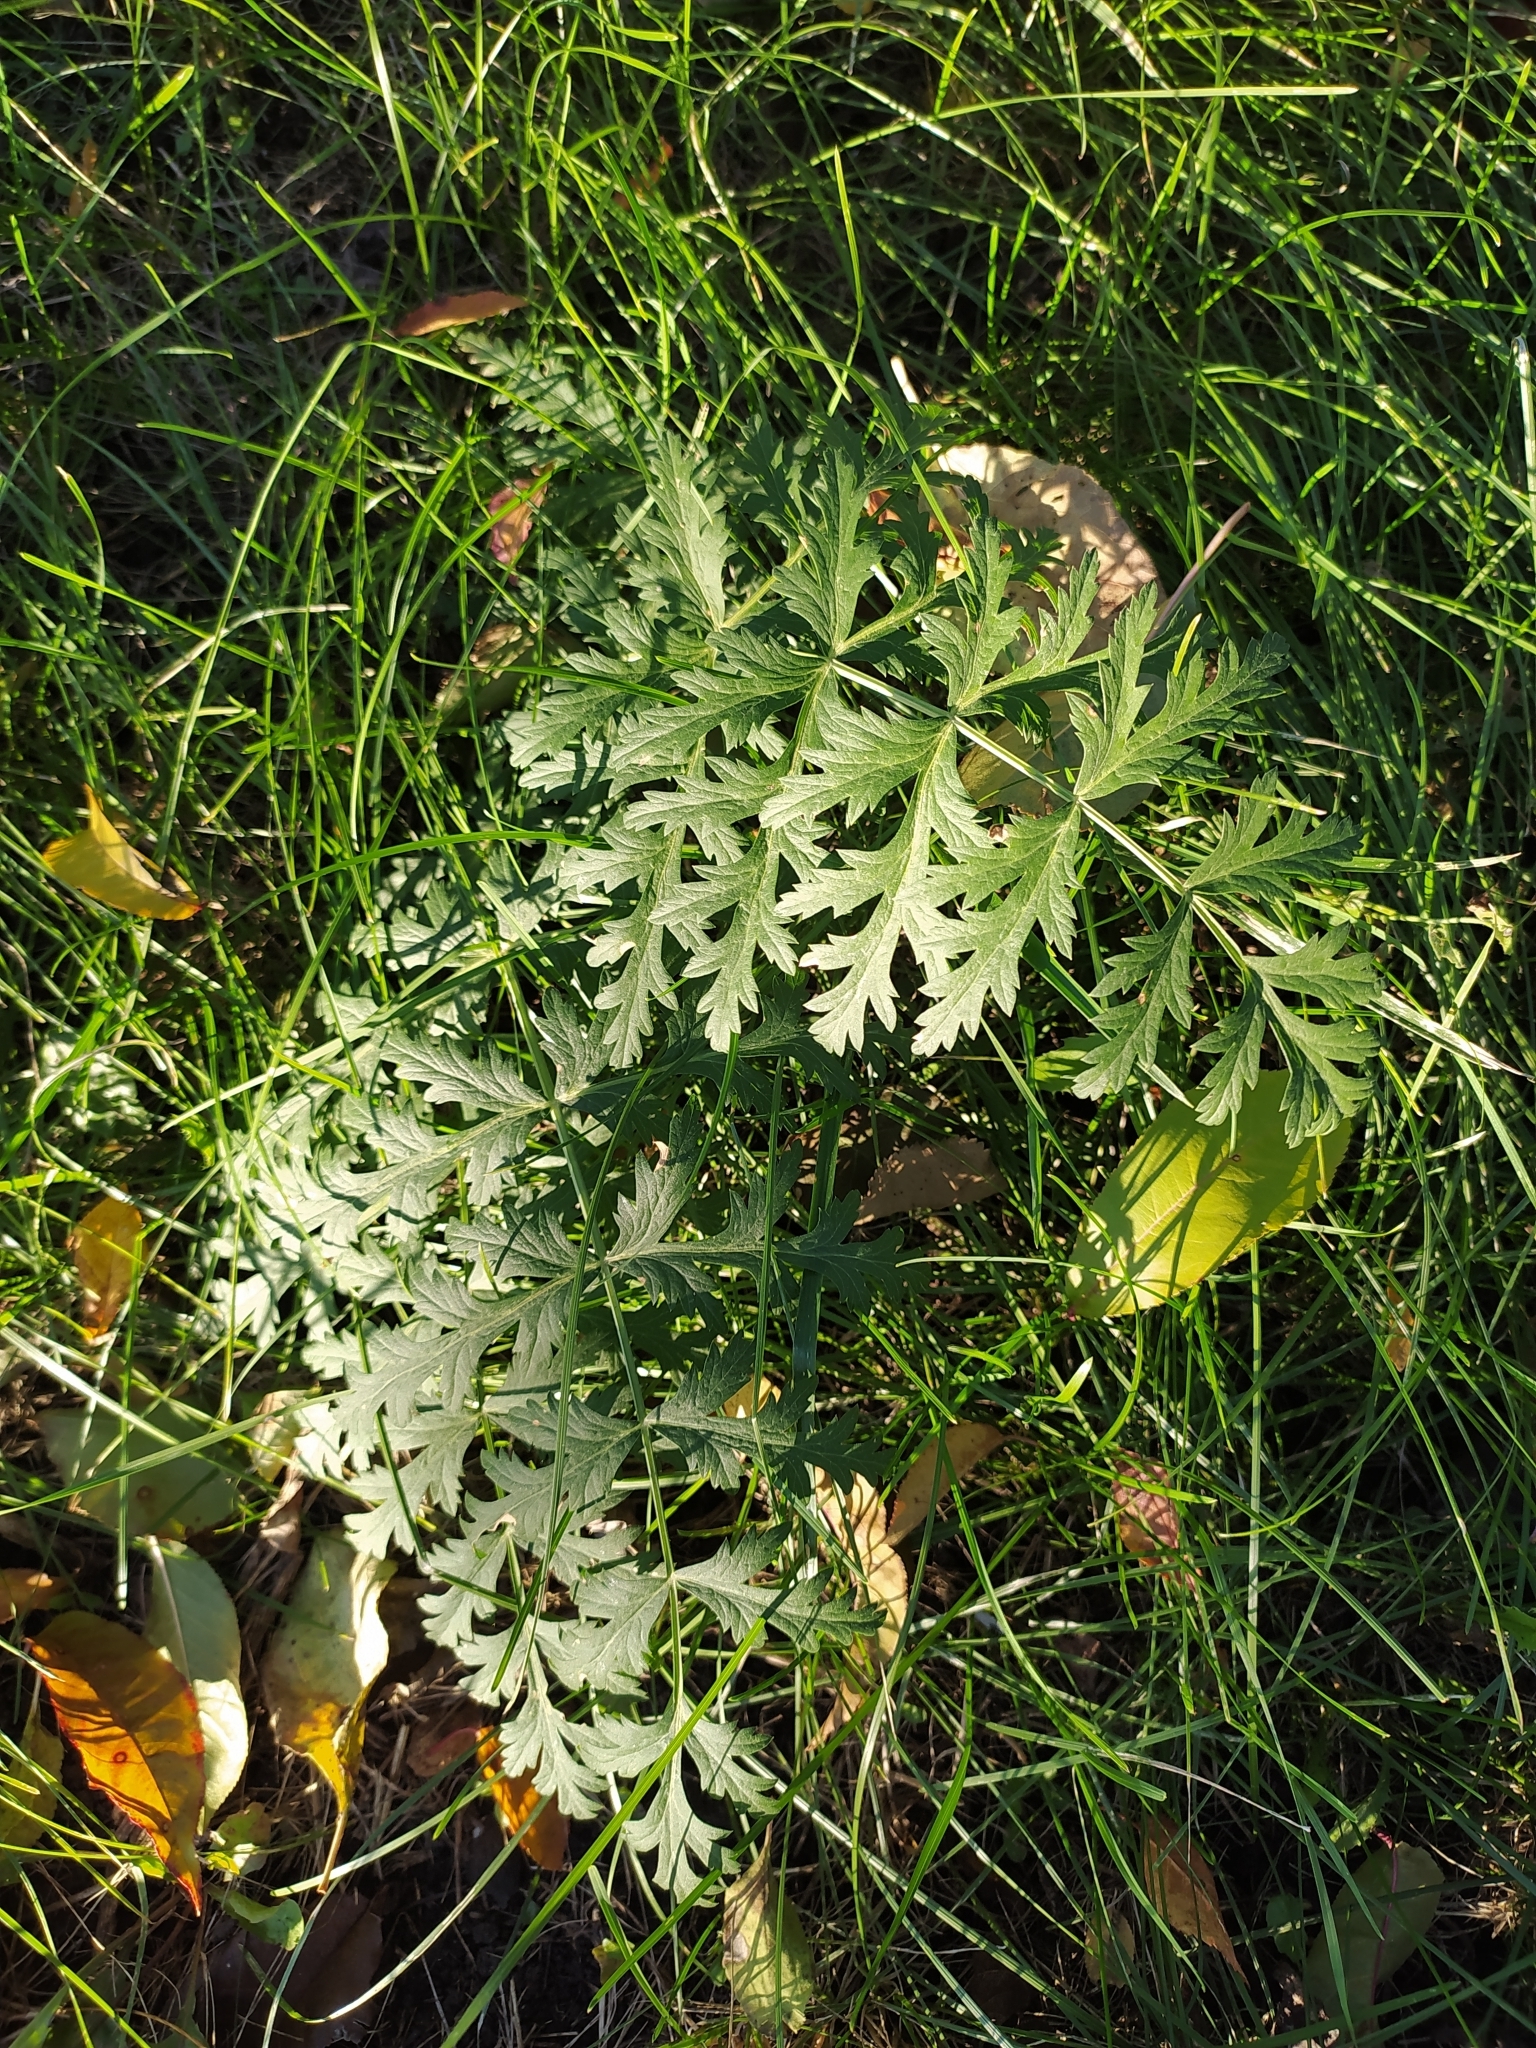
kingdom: Plantae
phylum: Tracheophyta
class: Magnoliopsida
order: Asterales
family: Asteraceae
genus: Tanacetum
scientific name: Tanacetum vulgare
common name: Common tansy
